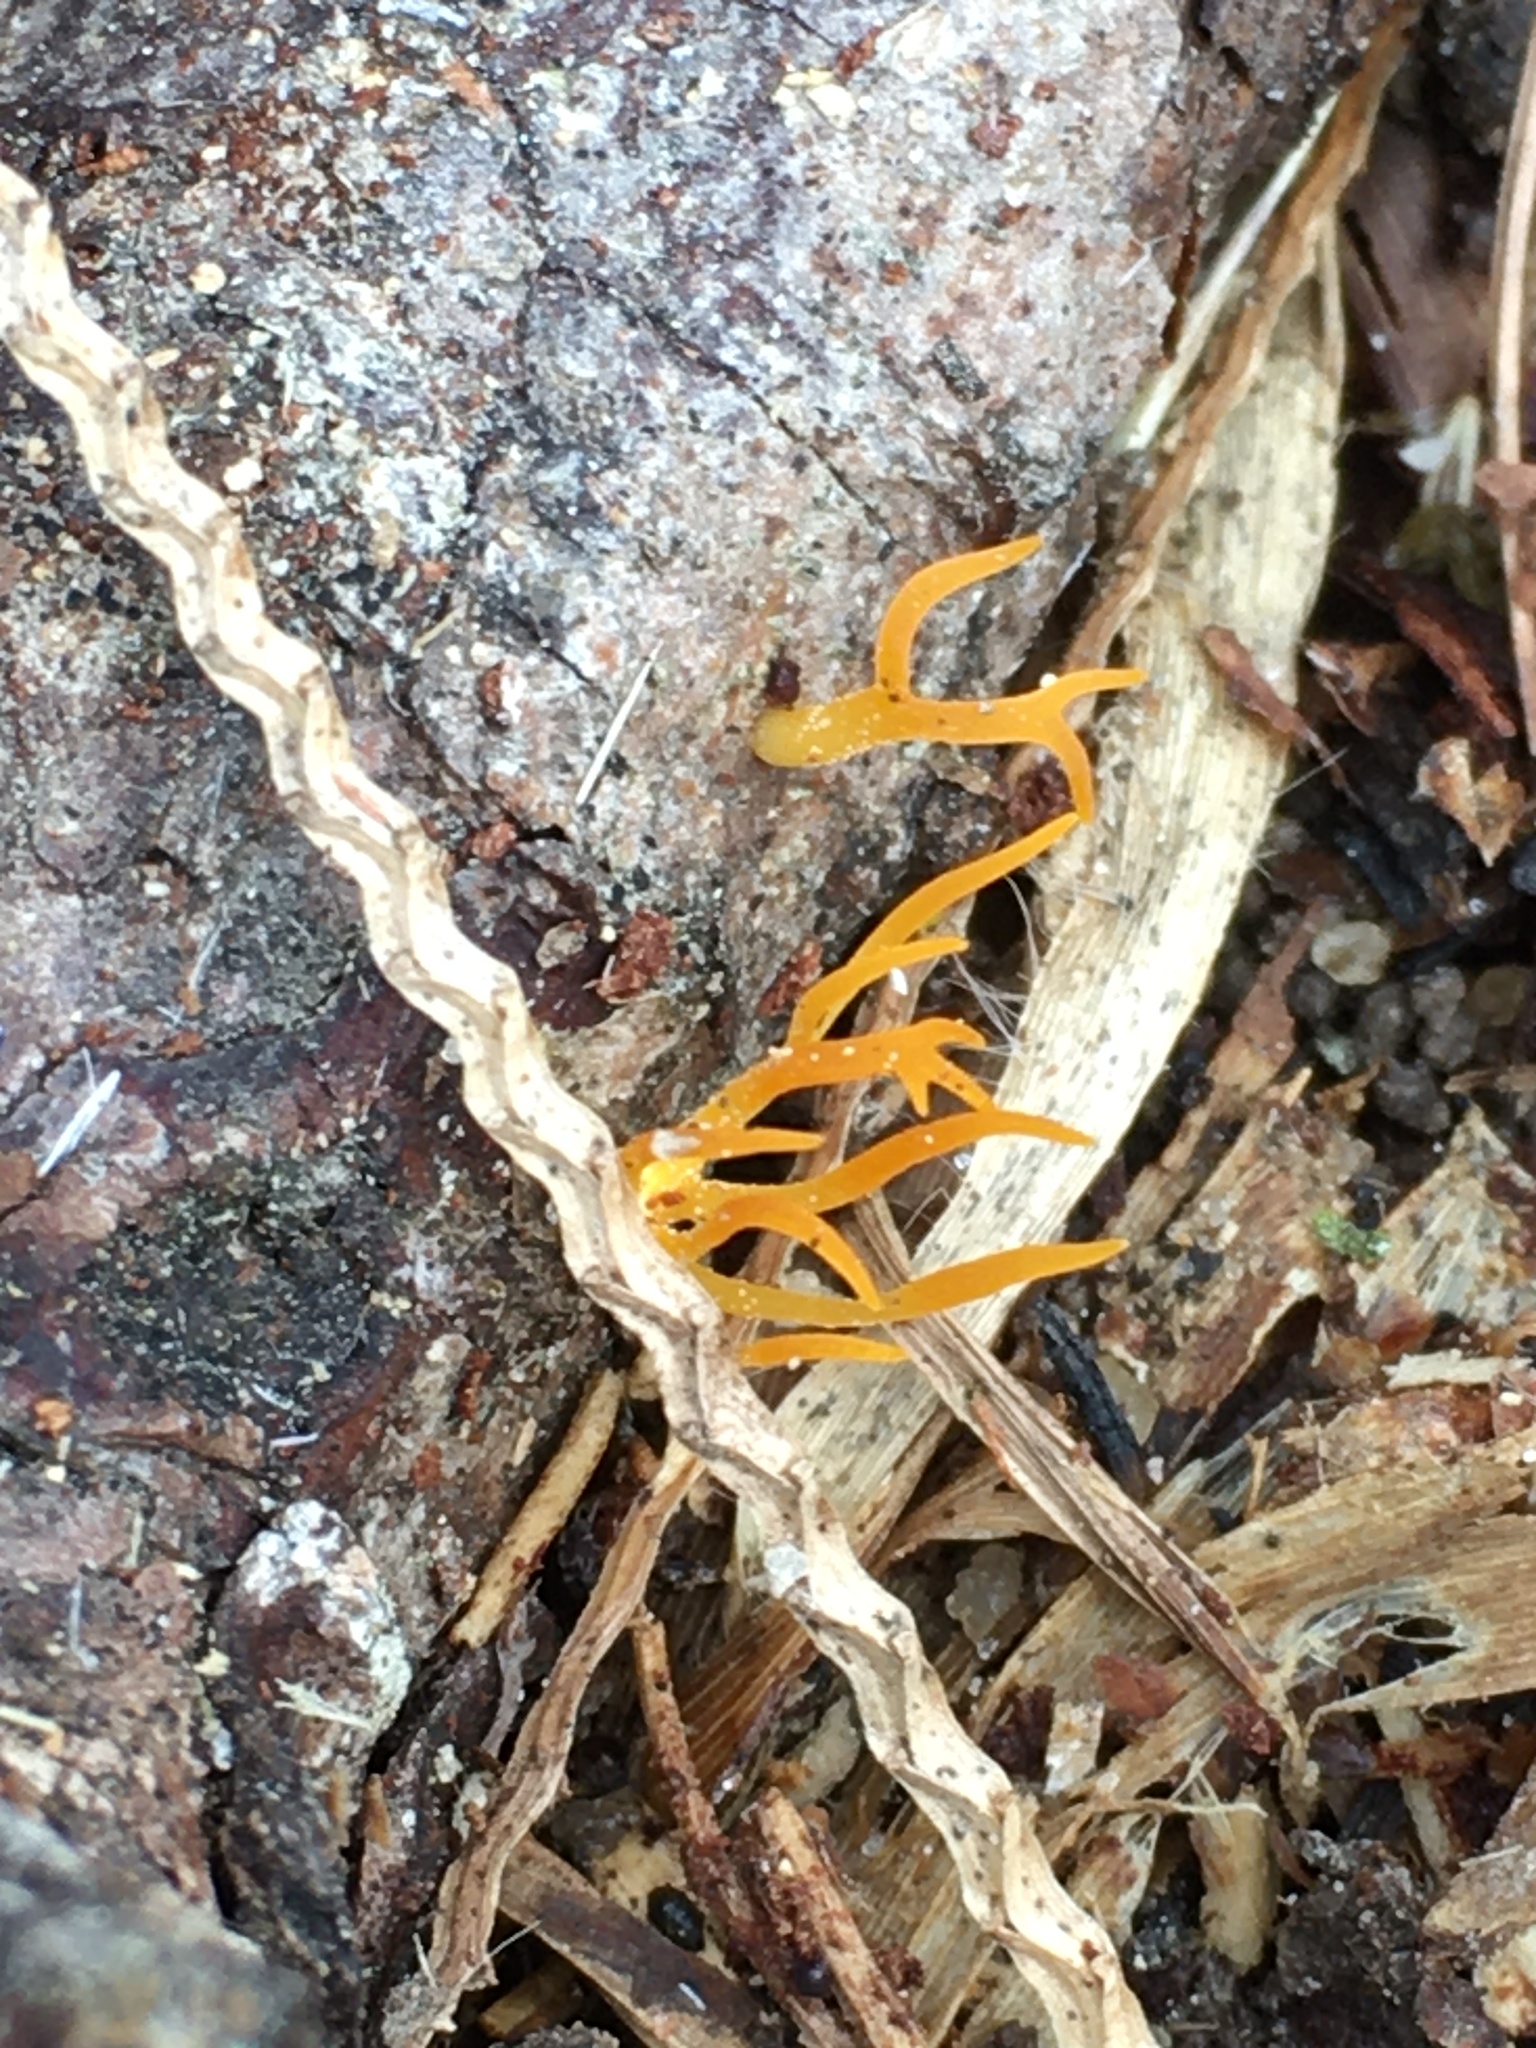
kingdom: Fungi
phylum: Basidiomycota
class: Dacrymycetes
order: Dacrymycetales
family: Dacrymycetaceae
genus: Calocera
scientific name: Calocera viscosa
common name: Yellow stagshorn
